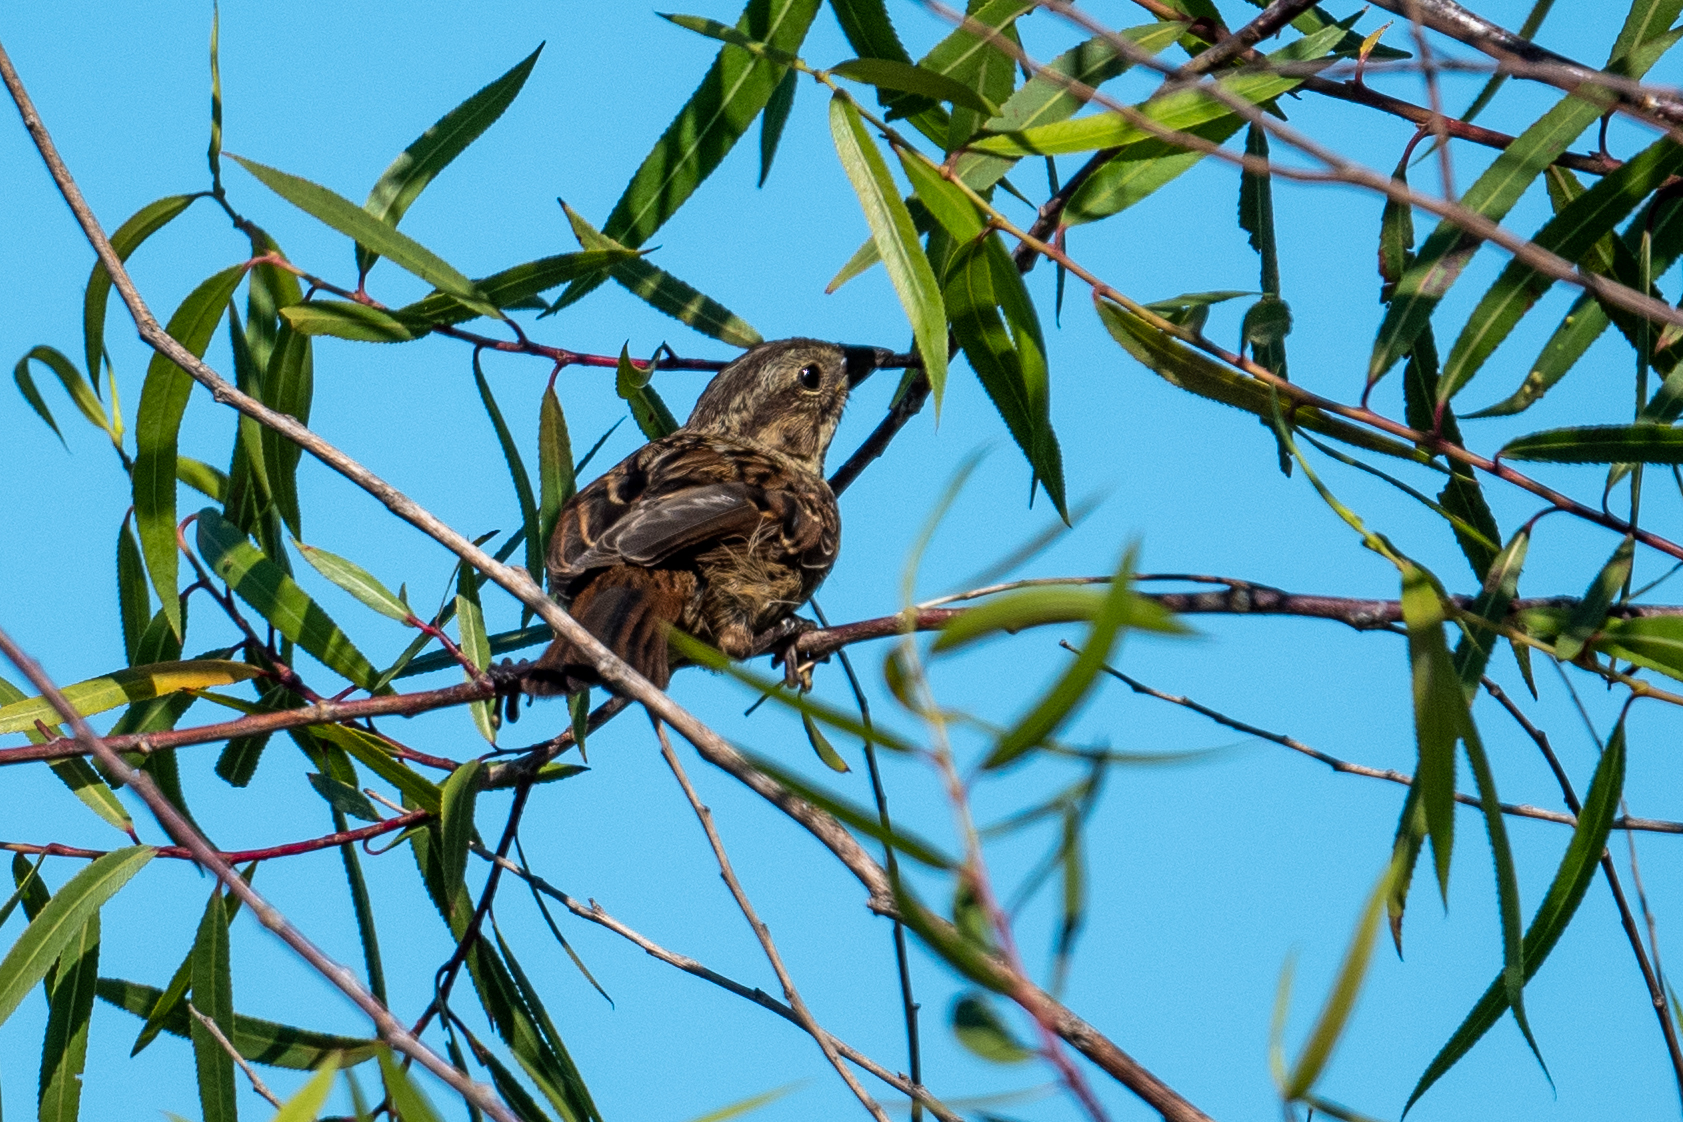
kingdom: Animalia
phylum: Chordata
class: Aves
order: Passeriformes
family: Passerellidae
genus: Melospiza
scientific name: Melospiza melodia
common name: Song sparrow
